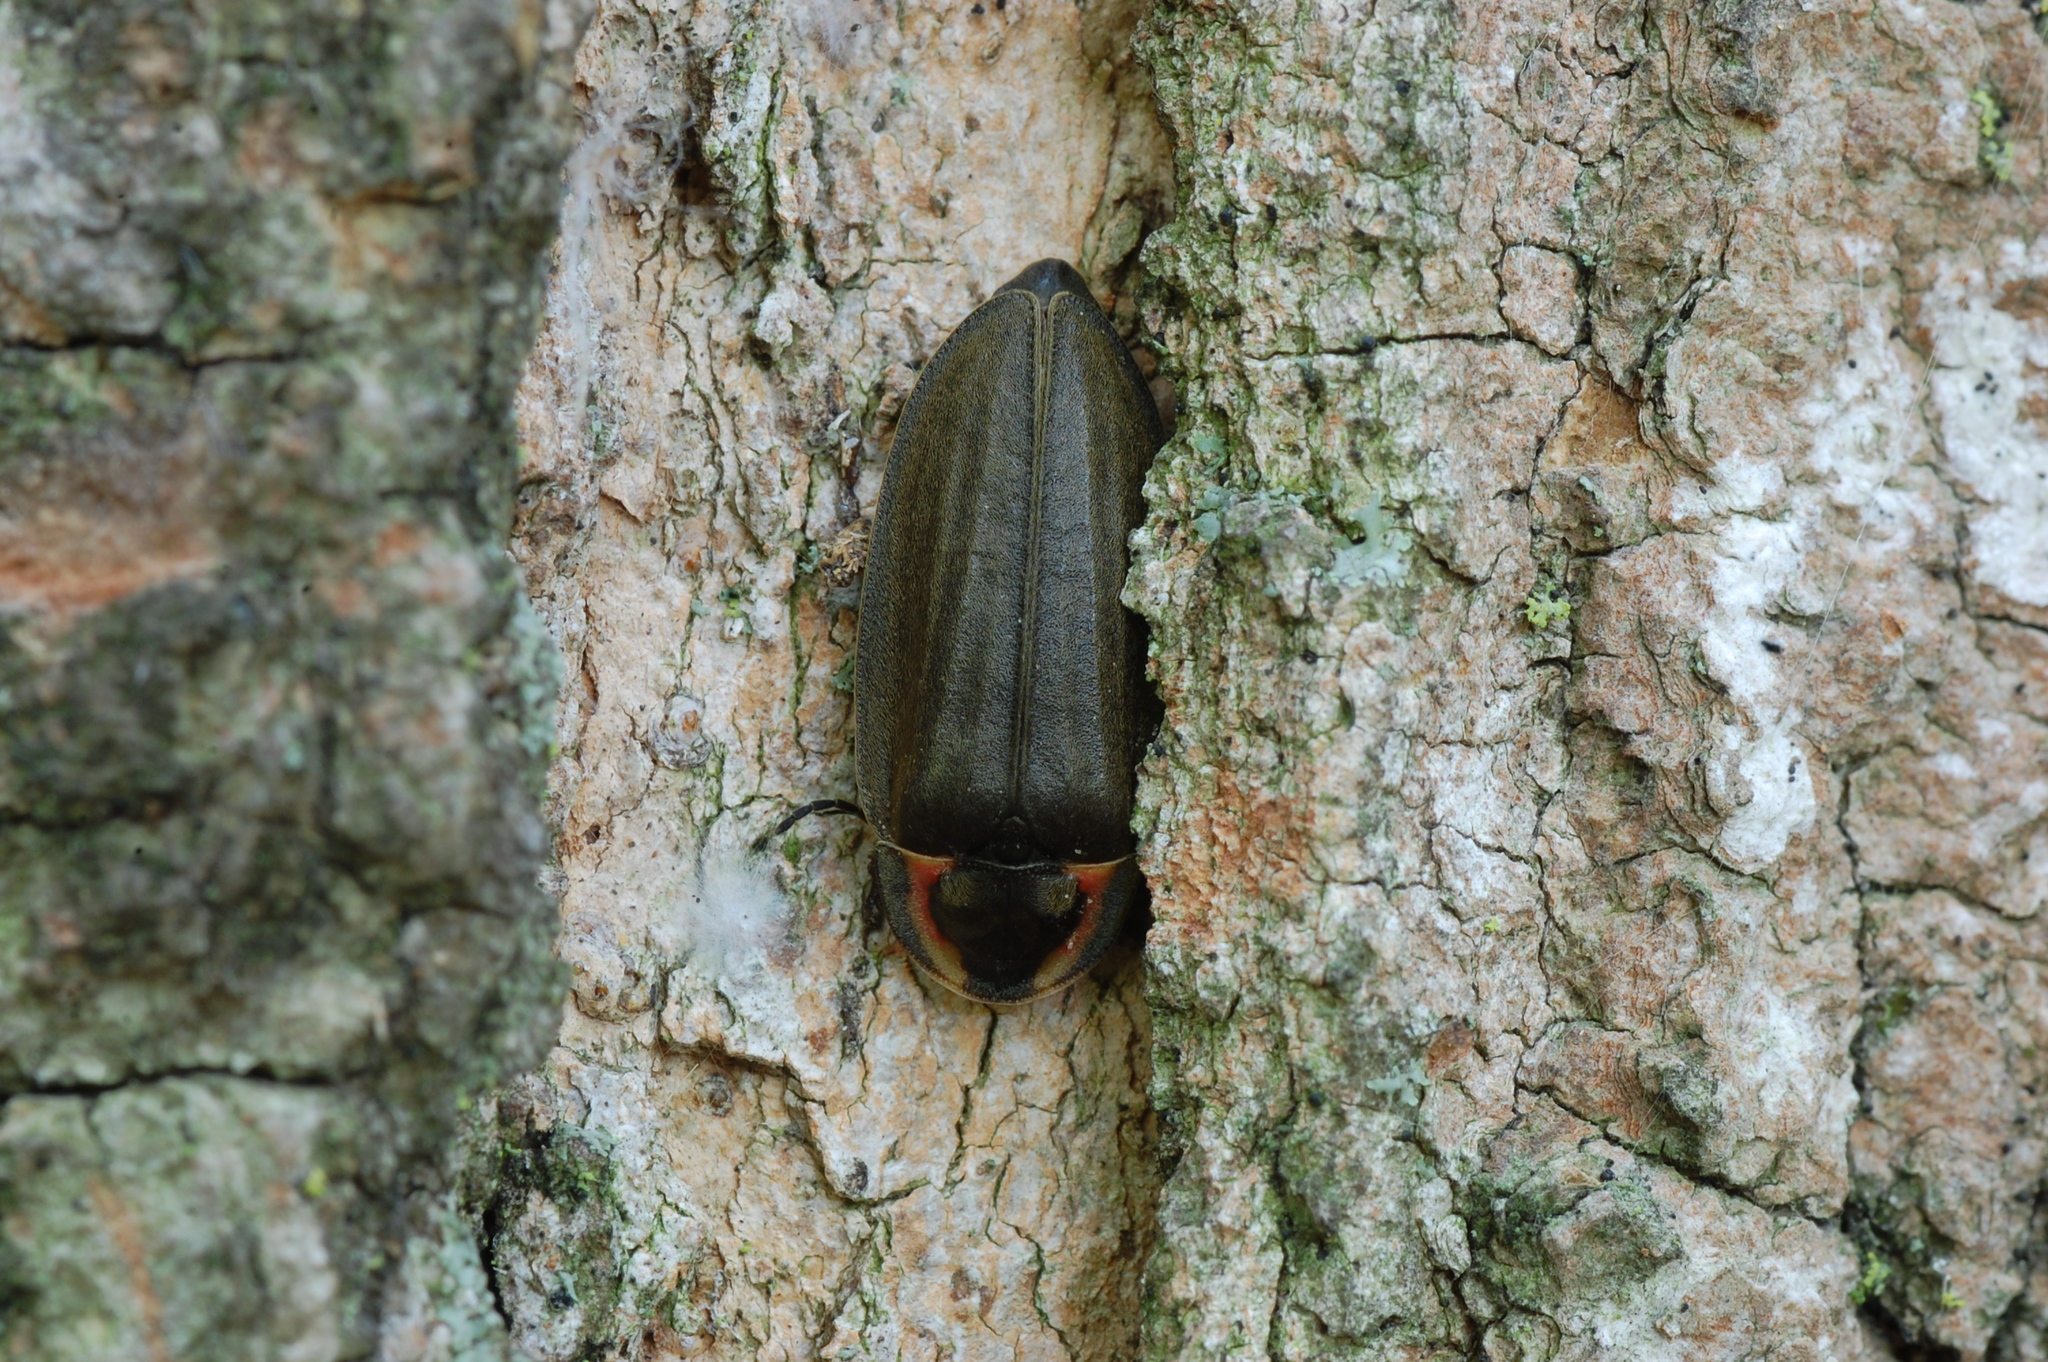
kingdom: Animalia
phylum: Arthropoda
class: Insecta
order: Coleoptera
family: Lampyridae
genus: Photinus
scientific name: Photinus corrusca
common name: Winter firefly
